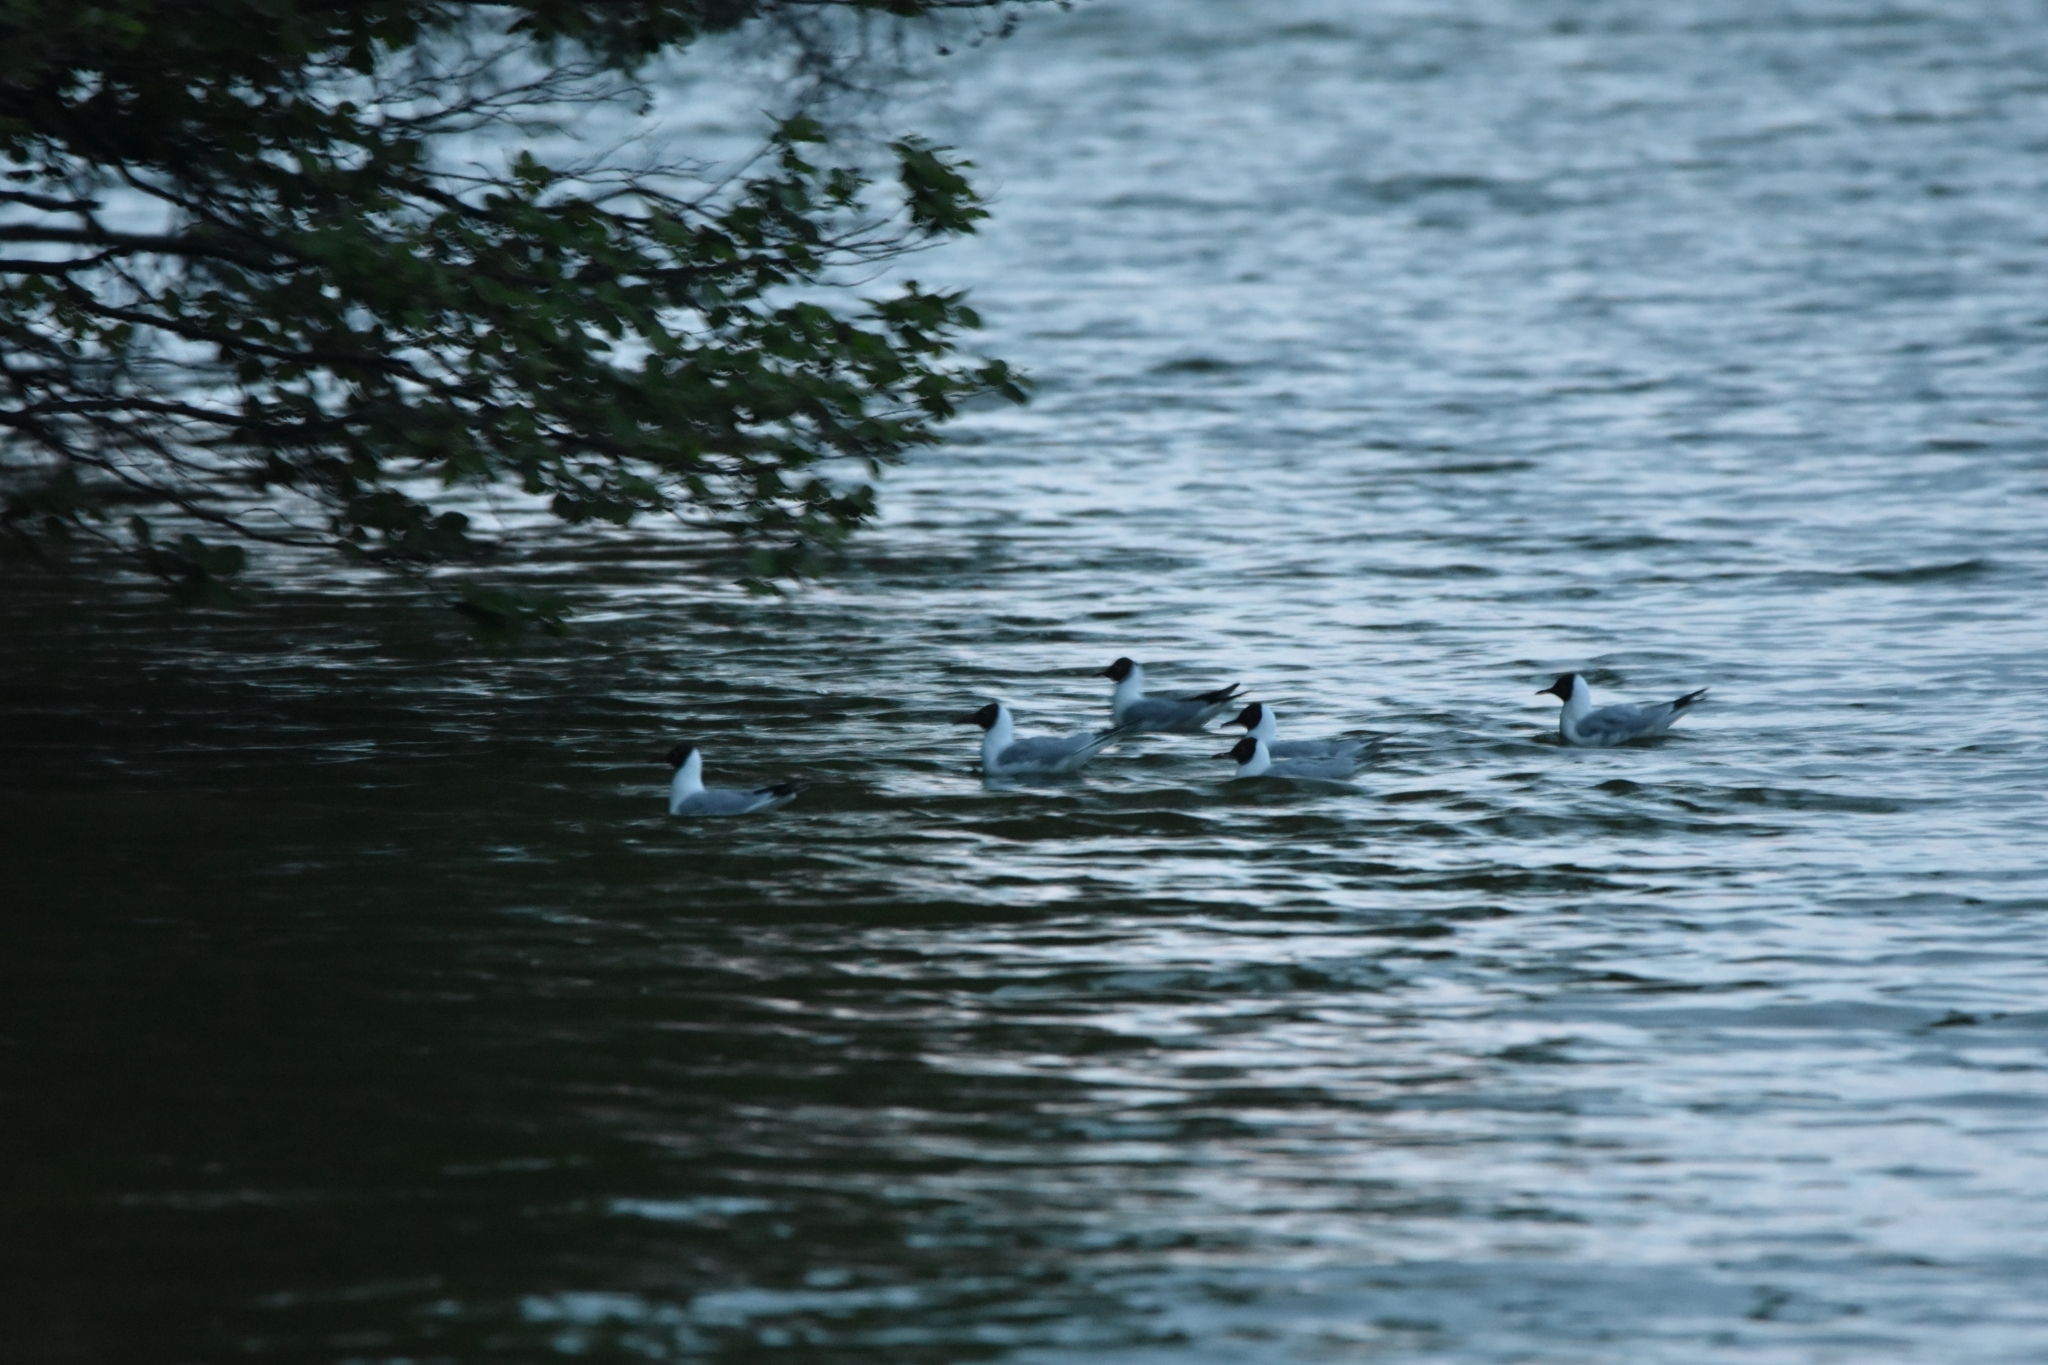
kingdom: Animalia
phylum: Chordata
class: Aves
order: Charadriiformes
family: Laridae
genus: Chroicocephalus
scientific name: Chroicocephalus ridibundus
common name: Black-headed gull
